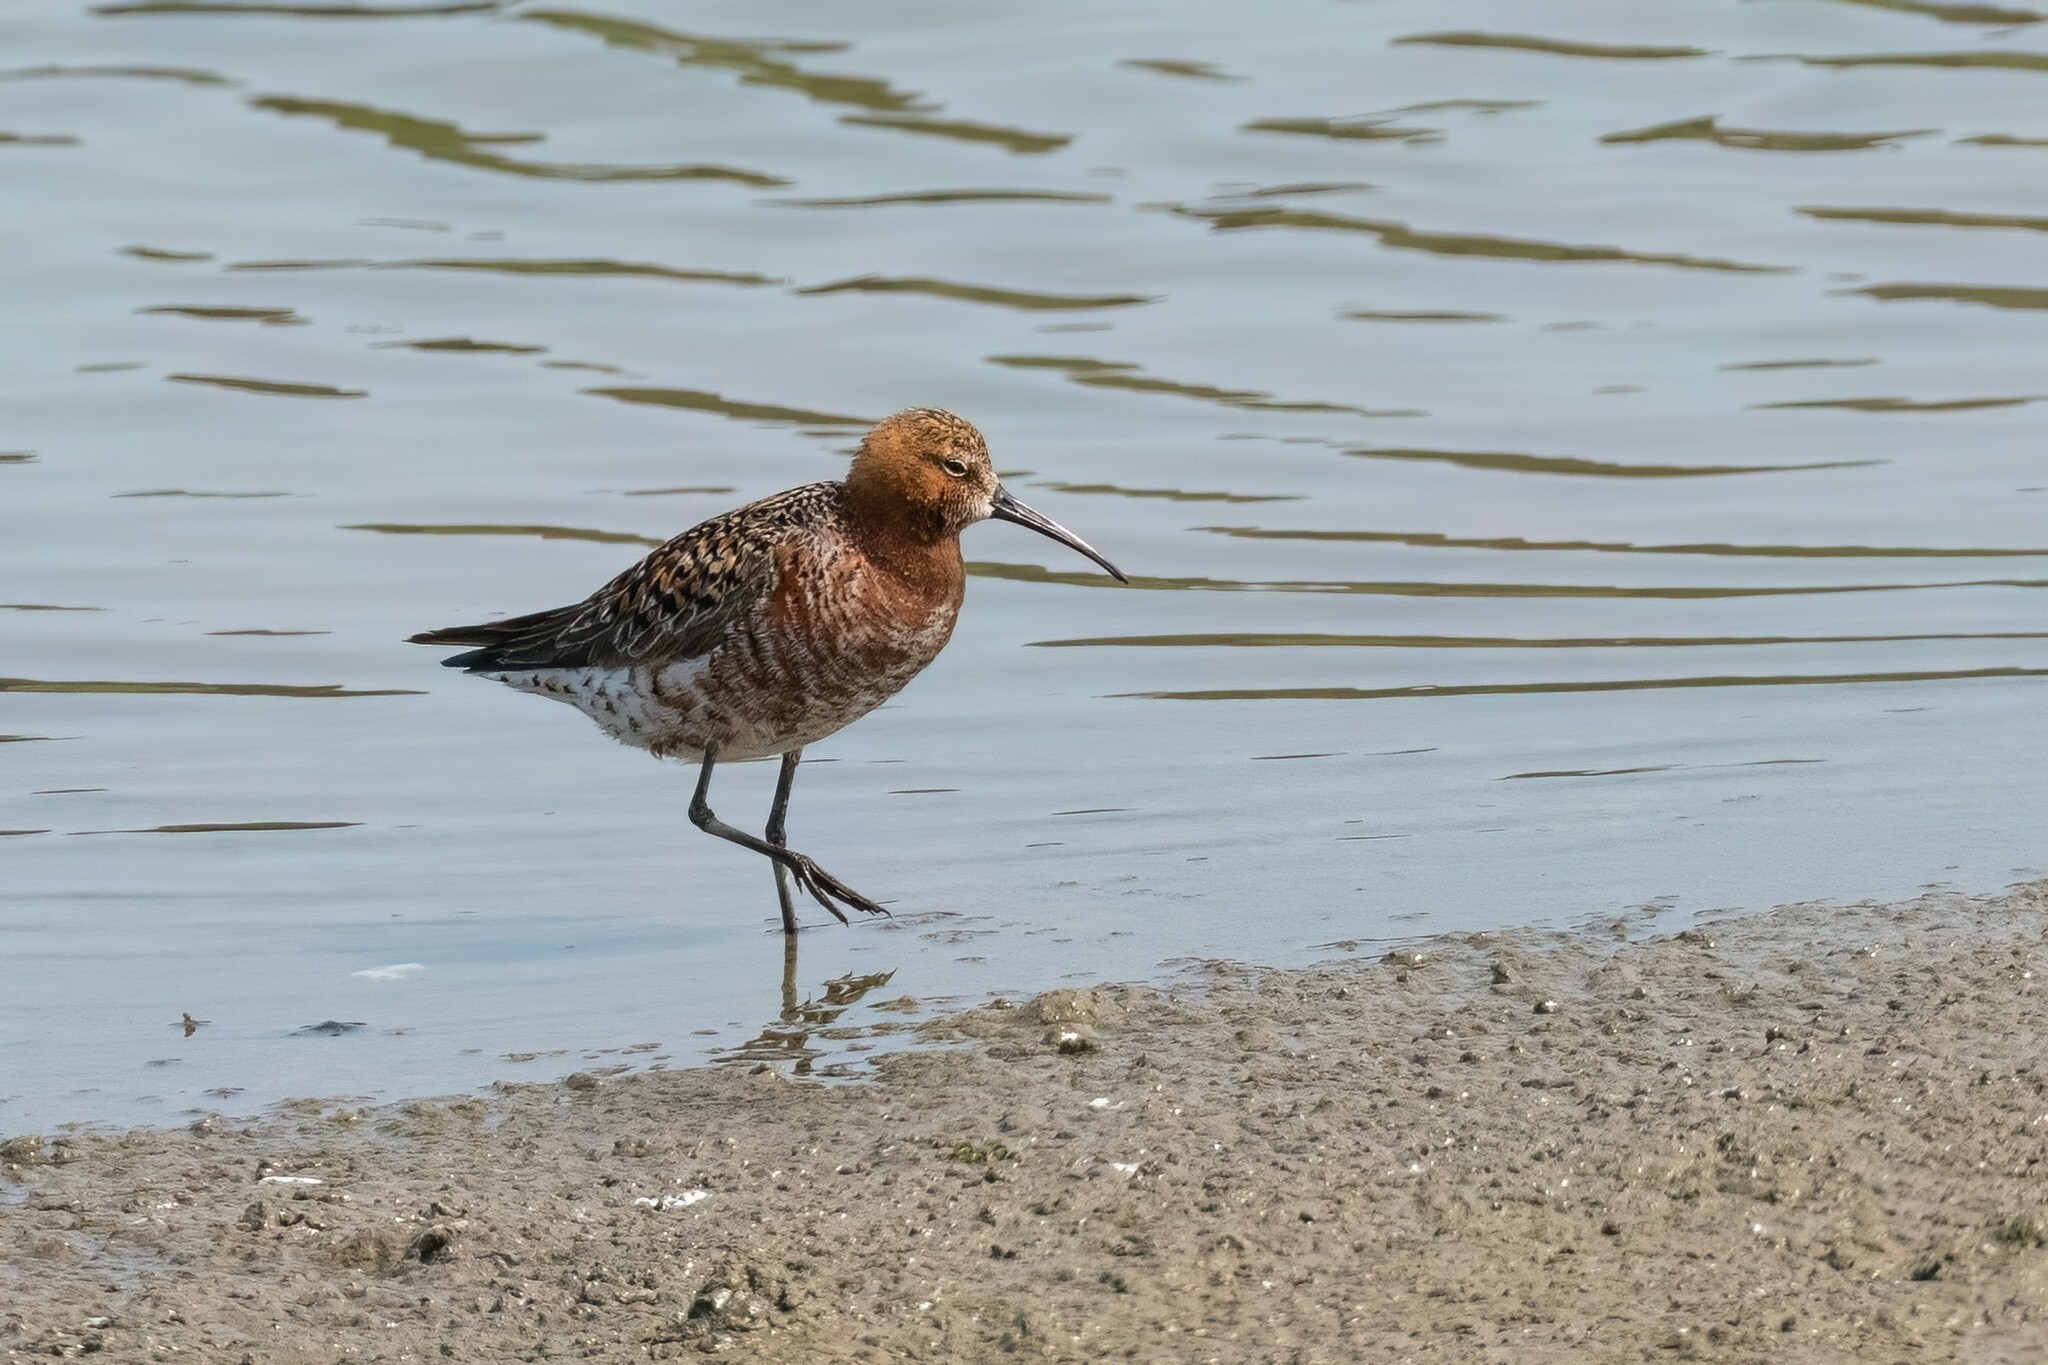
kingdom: Animalia
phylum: Chordata
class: Aves
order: Charadriiformes
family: Scolopacidae
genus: Calidris
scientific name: Calidris ferruginea
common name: Curlew sandpiper
